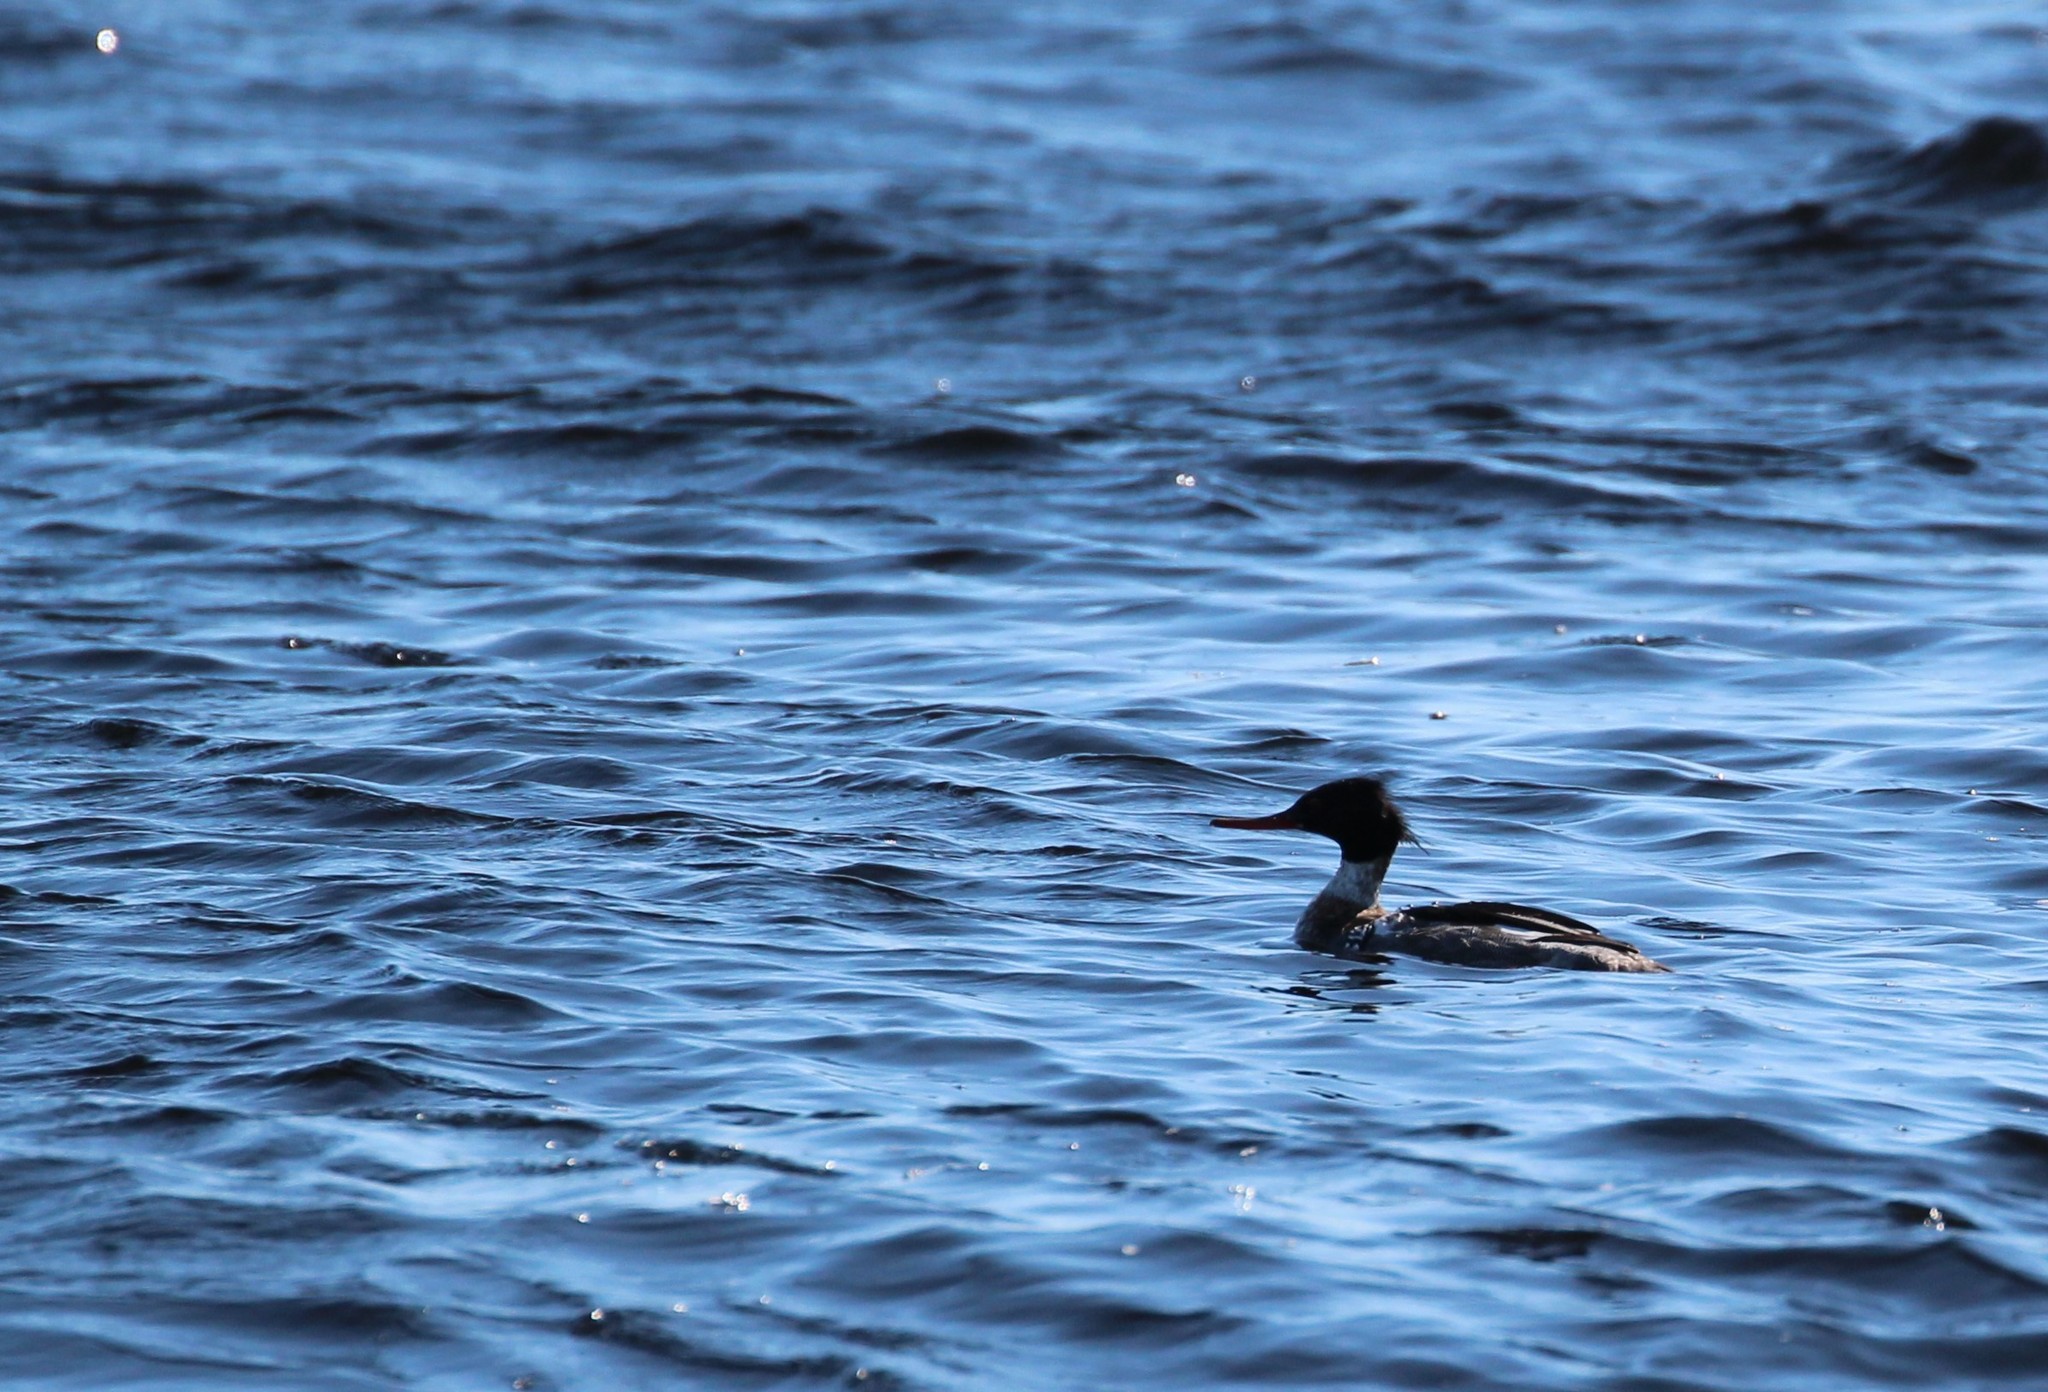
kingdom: Animalia
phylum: Chordata
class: Aves
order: Anseriformes
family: Anatidae
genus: Mergus
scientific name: Mergus serrator
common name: Red-breasted merganser
